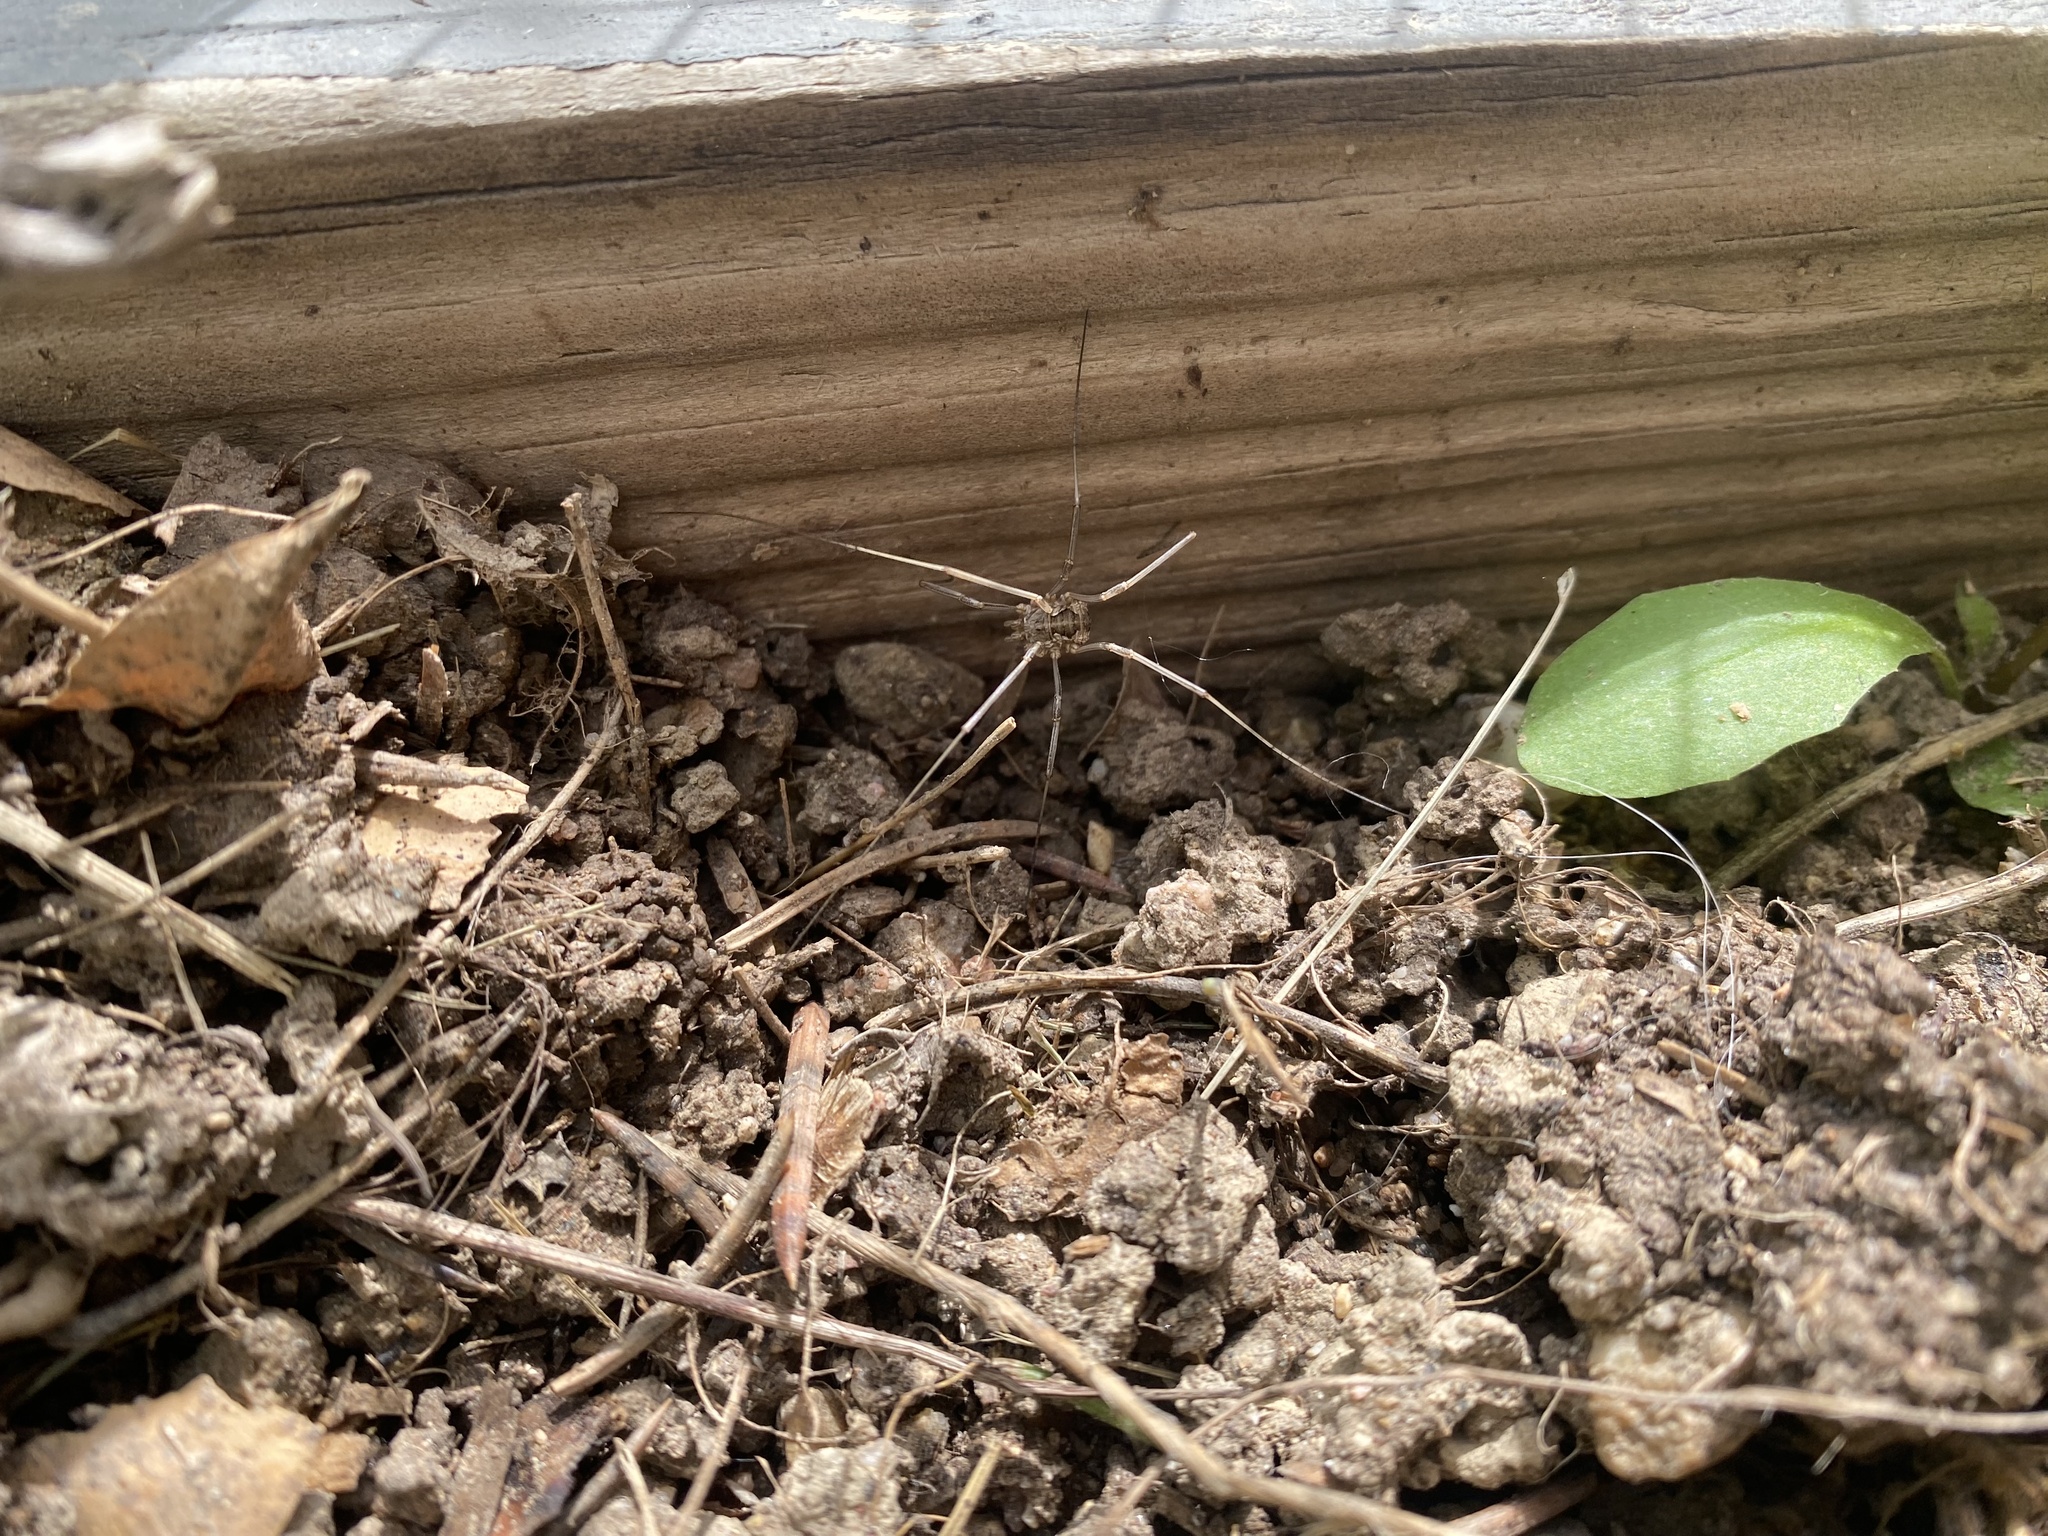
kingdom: Animalia
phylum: Arthropoda
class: Arachnida
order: Opiliones
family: Phalangiidae
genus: Phalangium
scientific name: Phalangium opilio
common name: Daddy longleg
